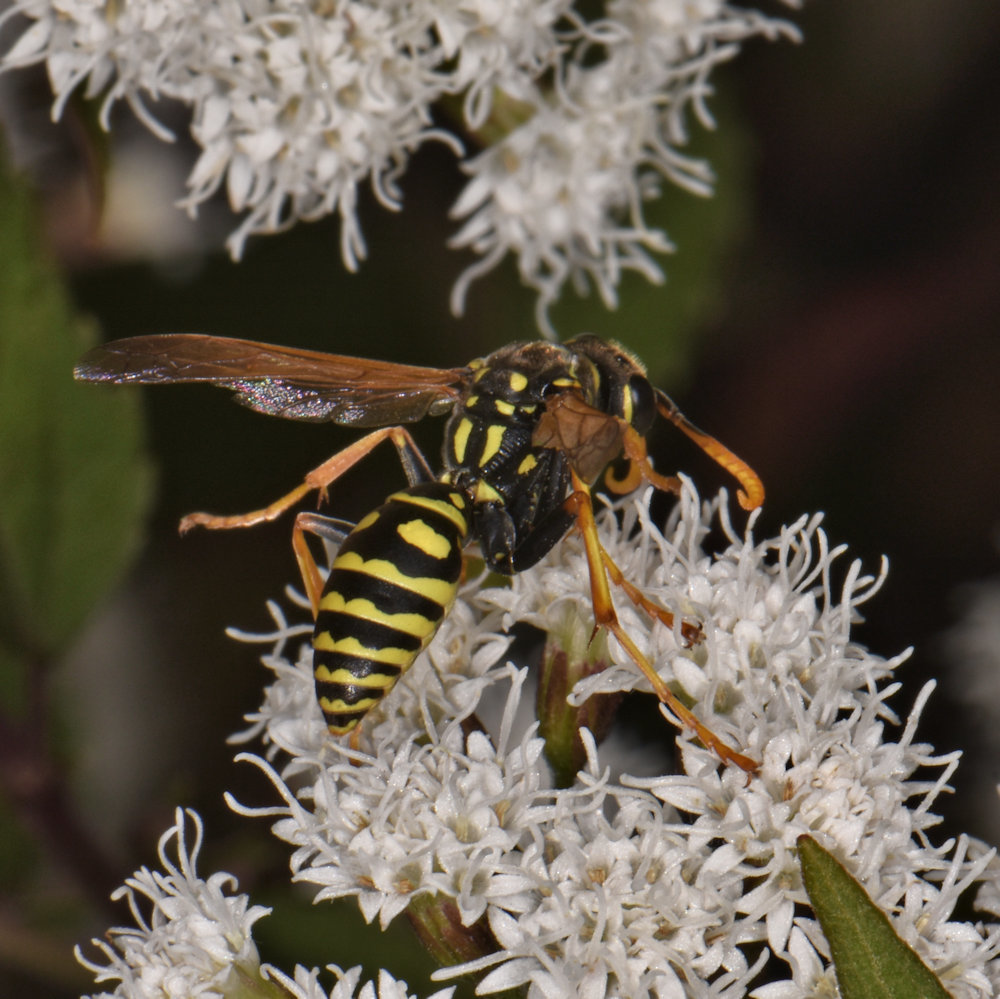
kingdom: Animalia
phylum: Arthropoda
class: Insecta
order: Hymenoptera
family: Eumenidae
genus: Polistes
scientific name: Polistes dominula
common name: Paper wasp
